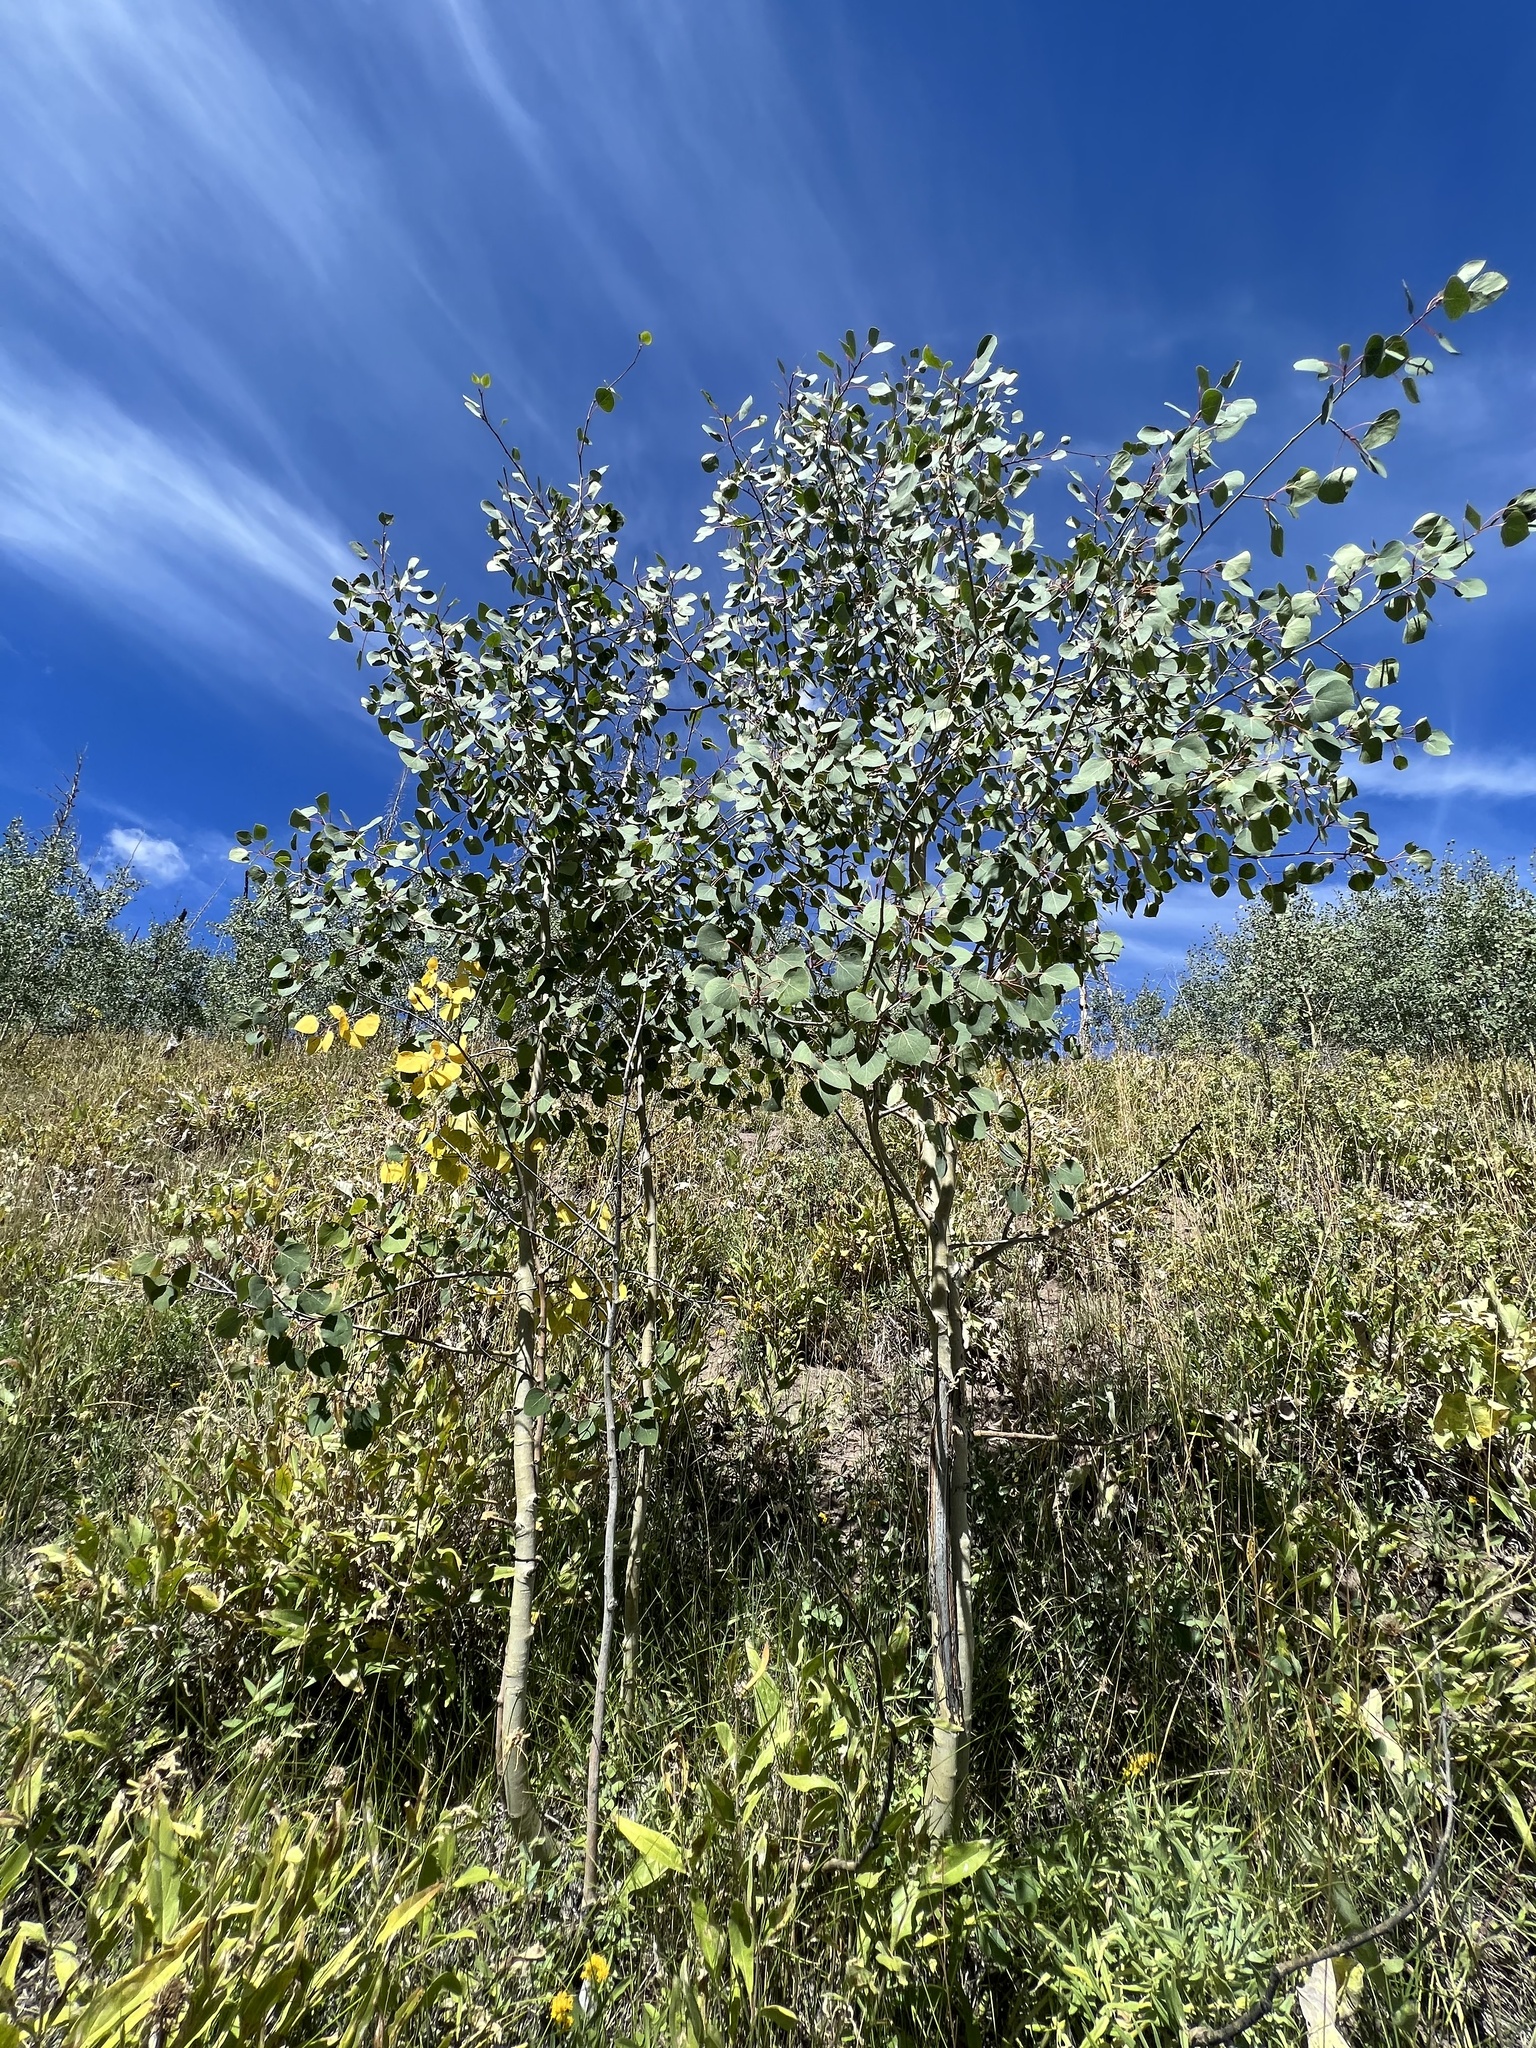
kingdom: Plantae
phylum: Tracheophyta
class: Magnoliopsida
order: Malpighiales
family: Salicaceae
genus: Populus
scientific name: Populus tremuloides
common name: Quaking aspen
